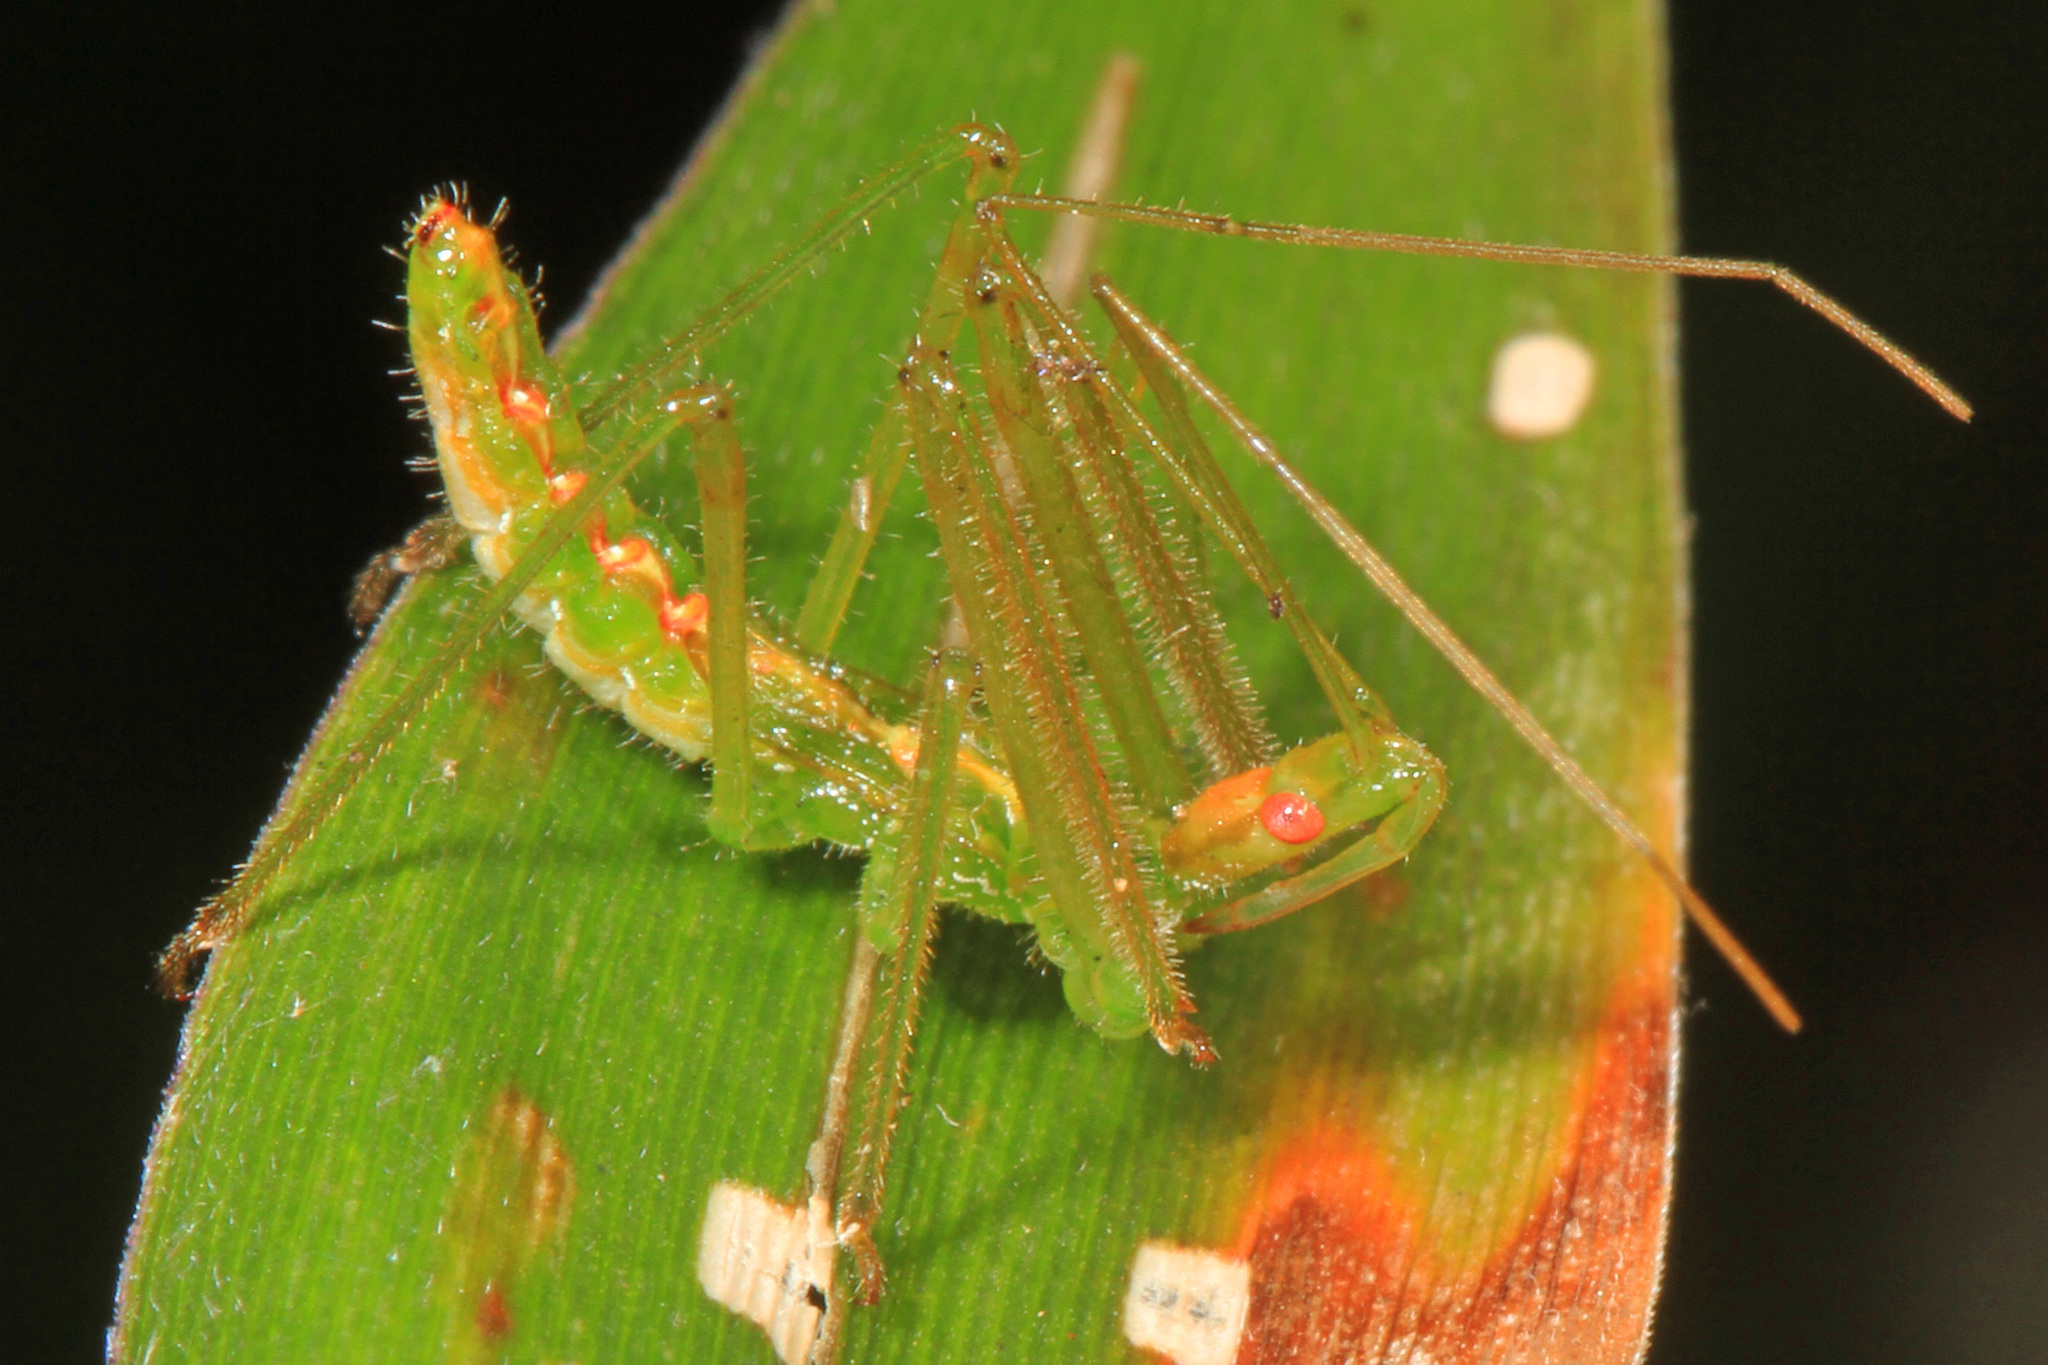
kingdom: Animalia
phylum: Arthropoda
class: Insecta
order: Hemiptera
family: Reduviidae
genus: Zelus
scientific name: Zelus luridus
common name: Pale green assassin bug
